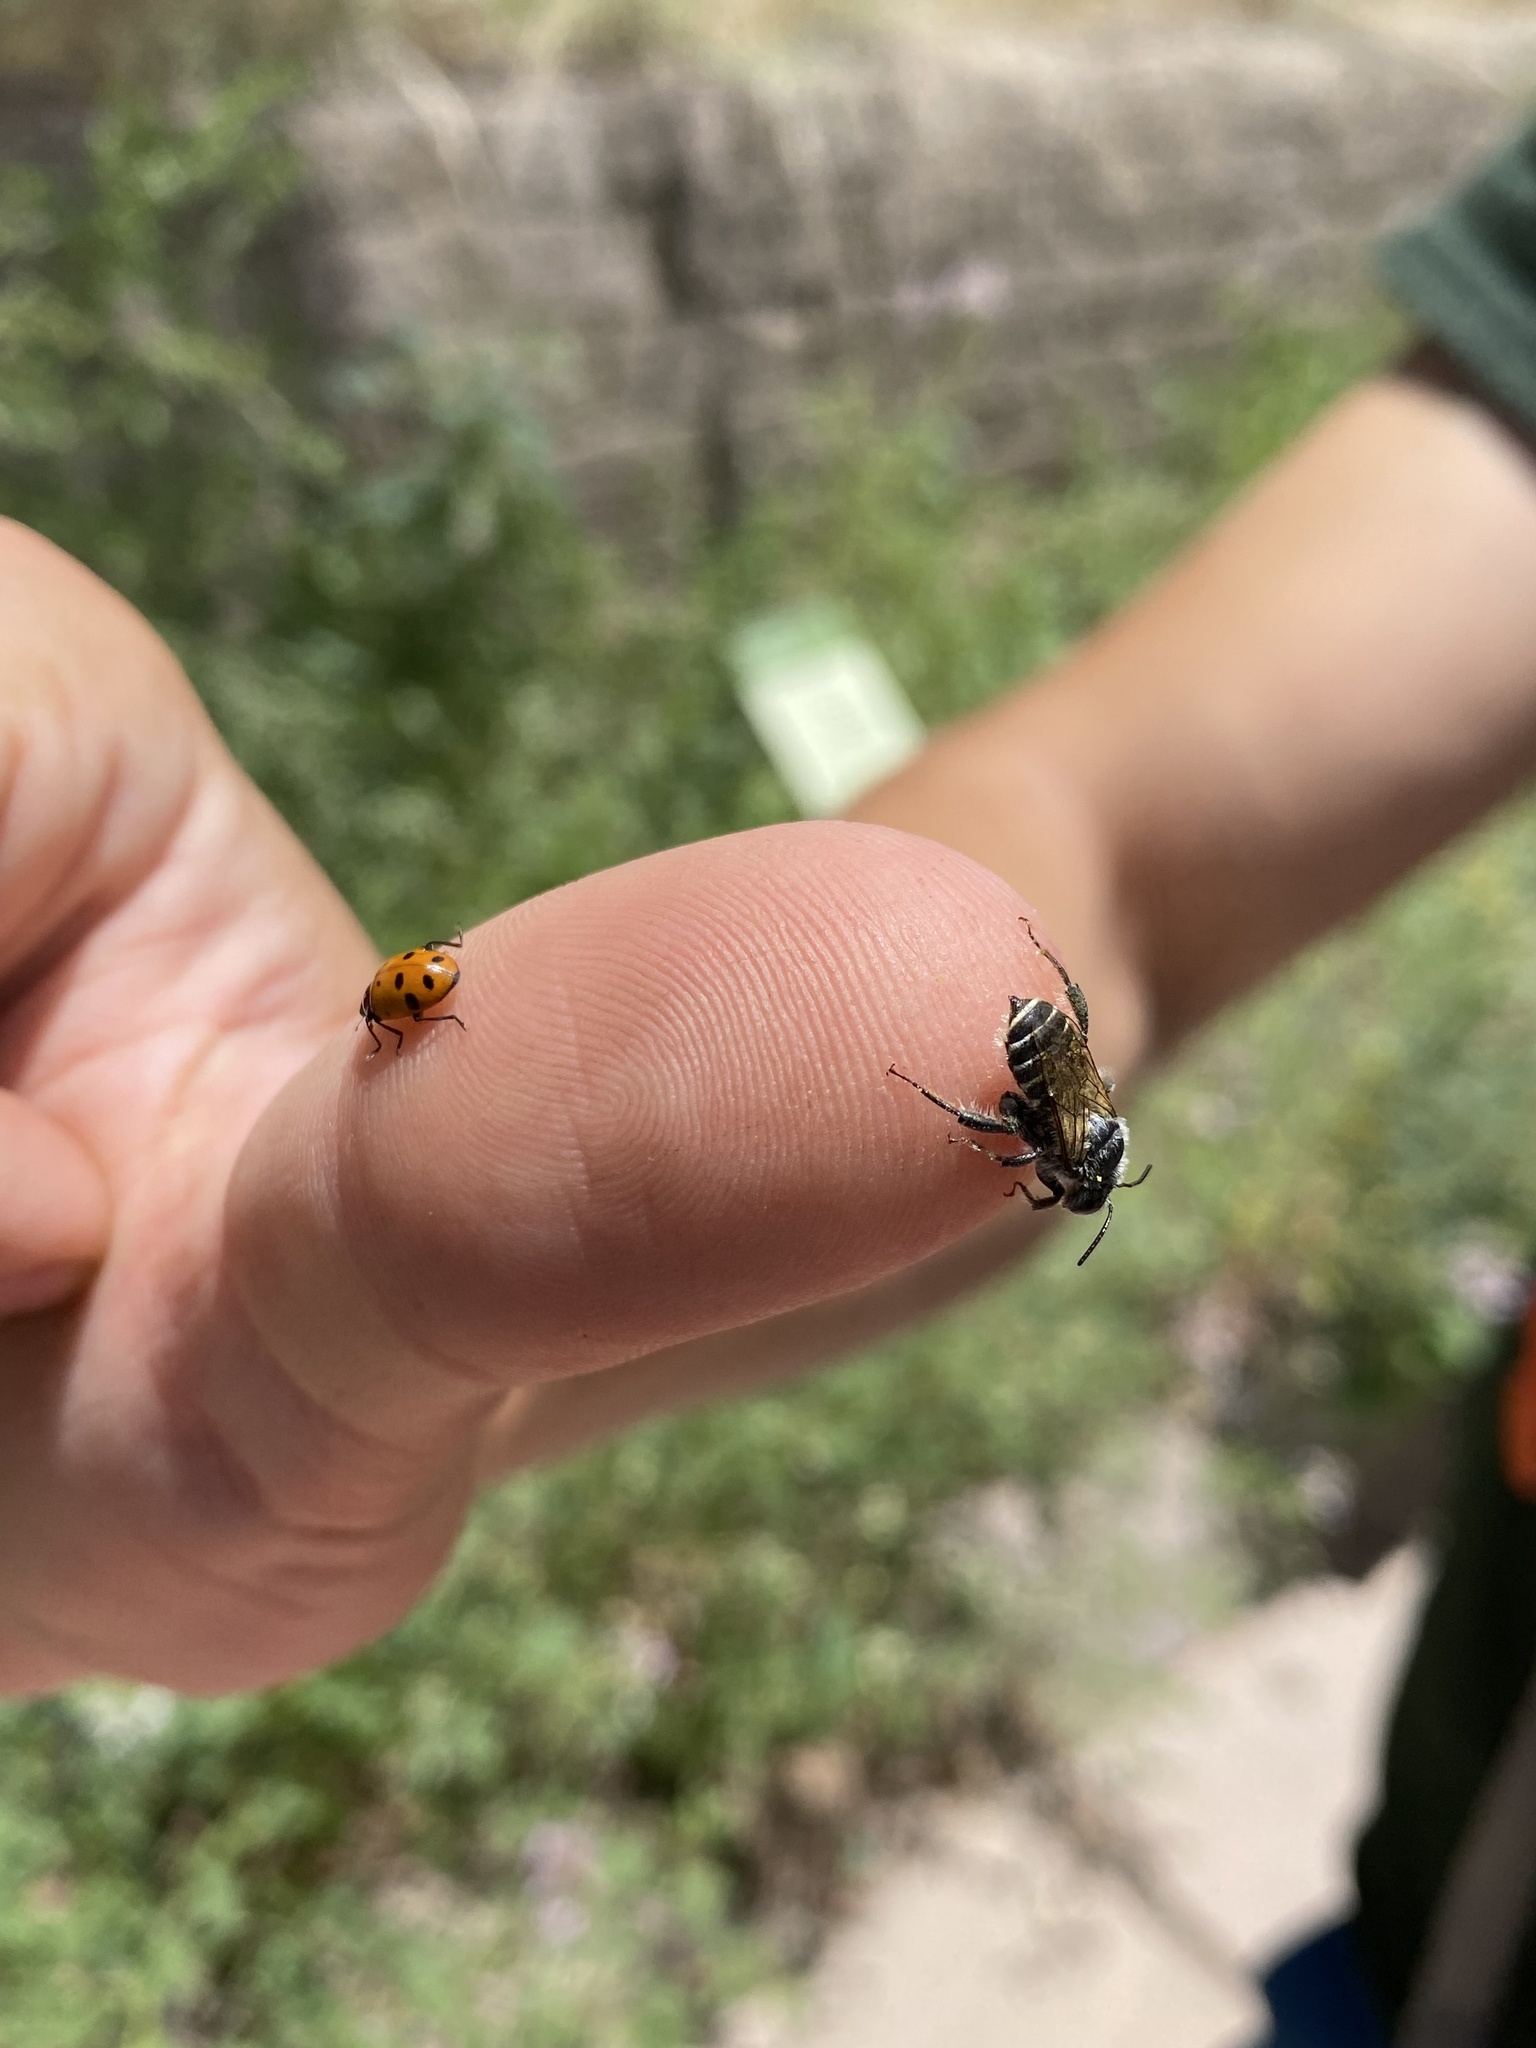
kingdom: Animalia
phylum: Arthropoda
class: Insecta
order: Coleoptera
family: Coccinellidae
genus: Hippodamia
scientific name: Hippodamia convergens
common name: Convergent lady beetle
